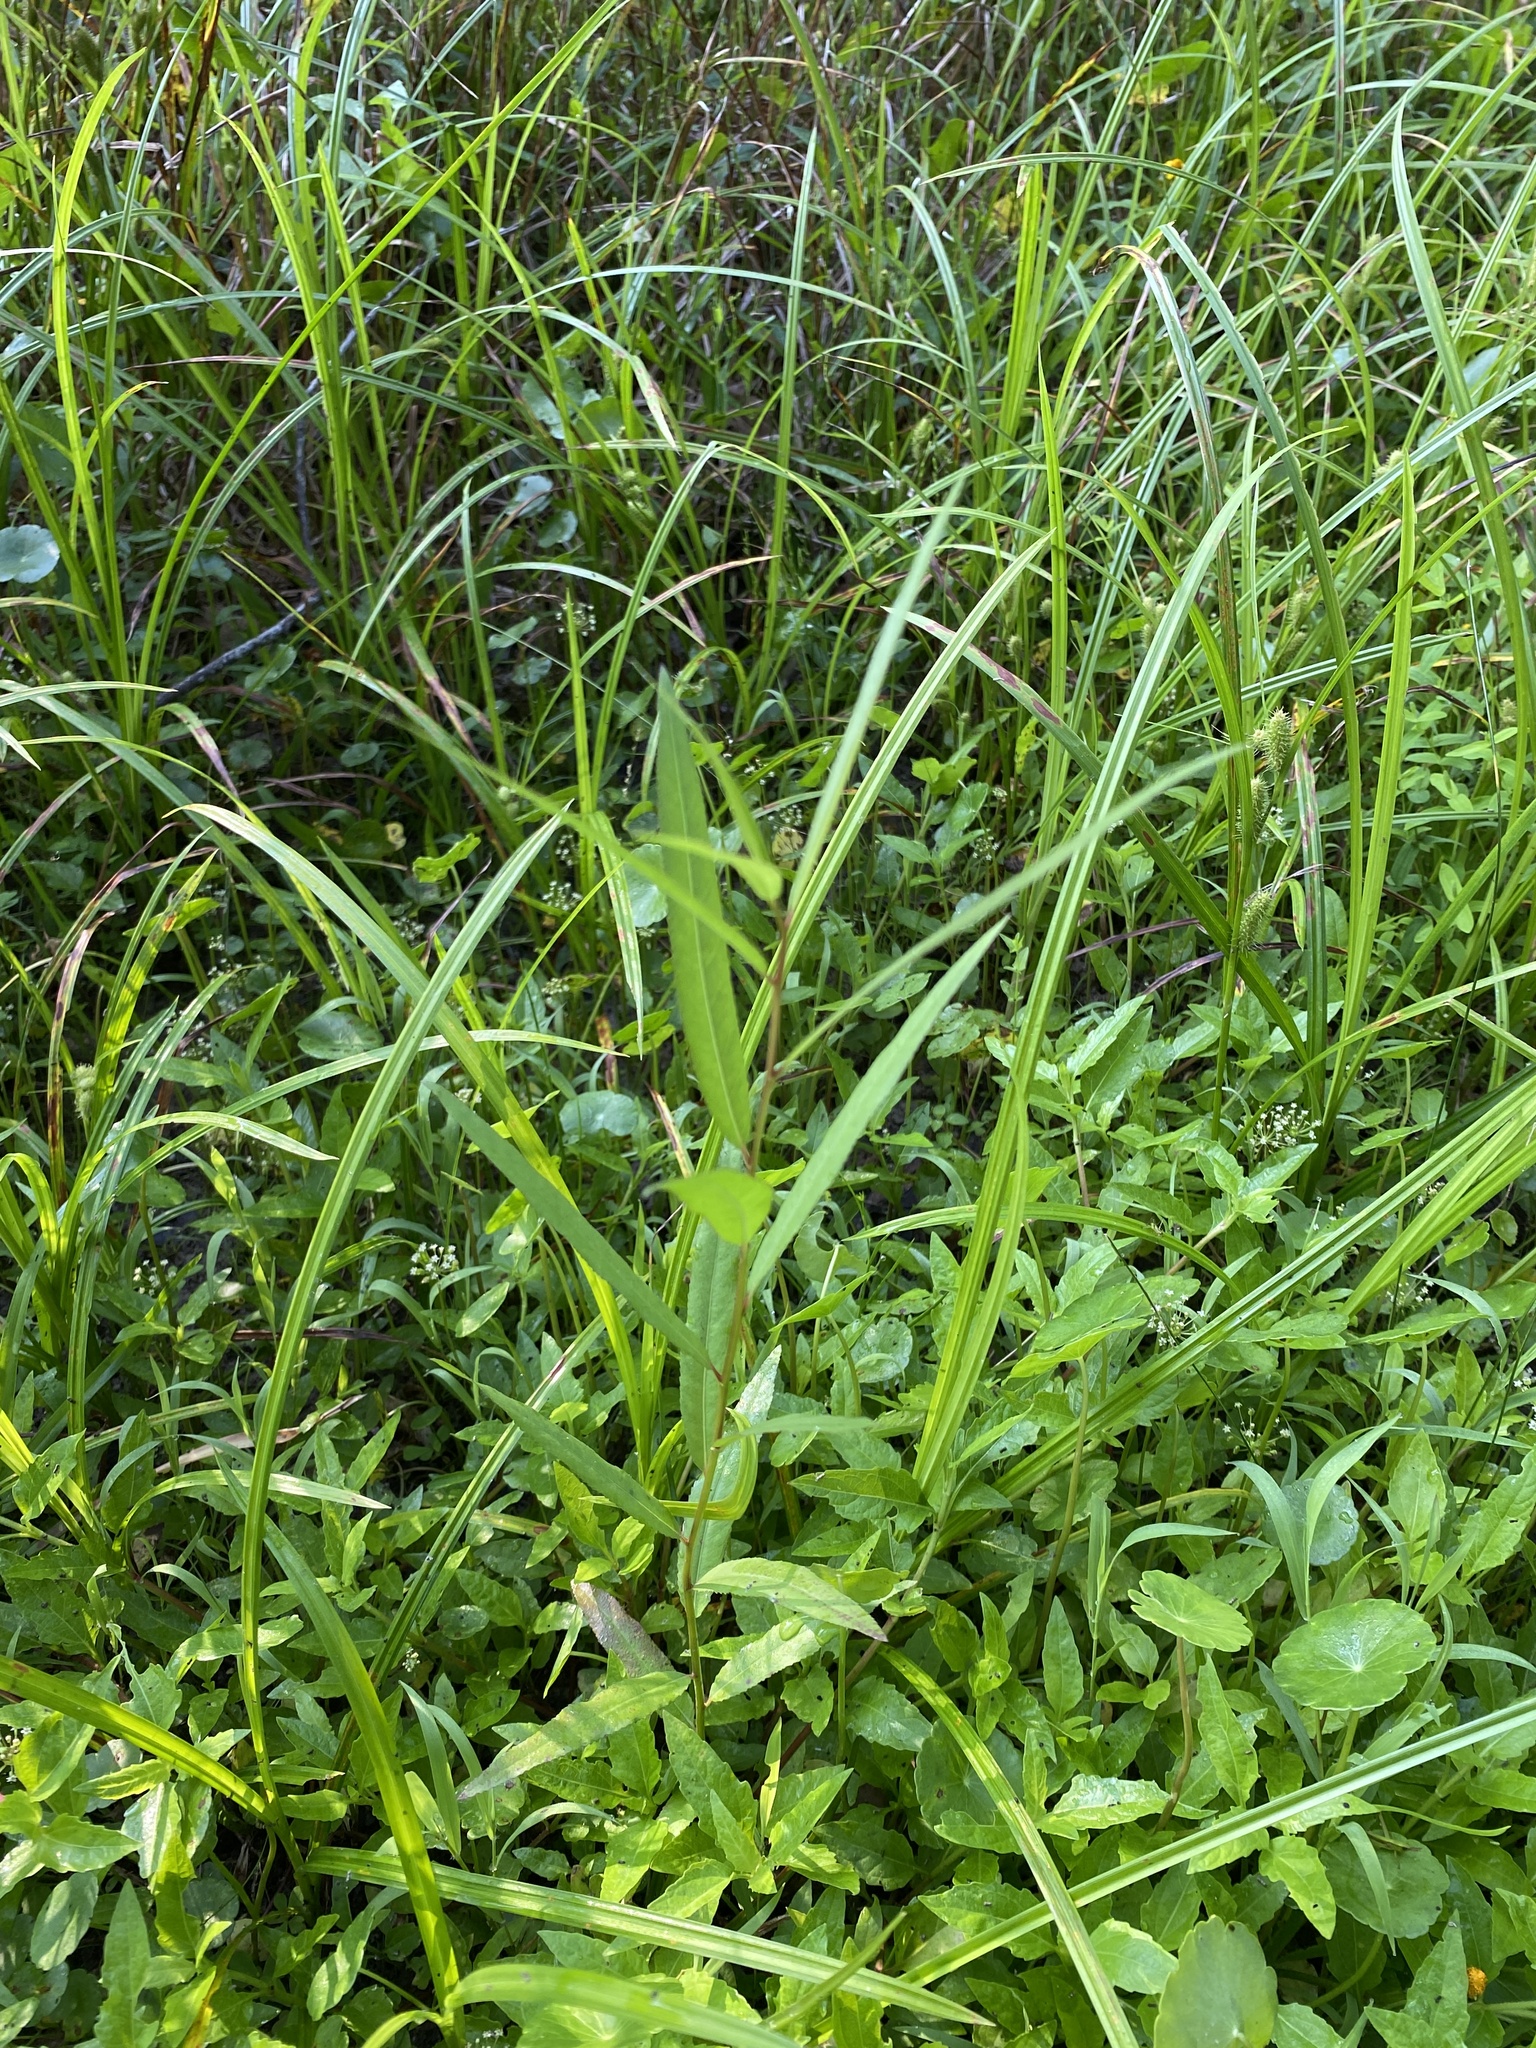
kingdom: Plantae
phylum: Tracheophyta
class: Magnoliopsida
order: Malpighiales
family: Salicaceae
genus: Salix
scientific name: Salix nigra
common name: Black willow
